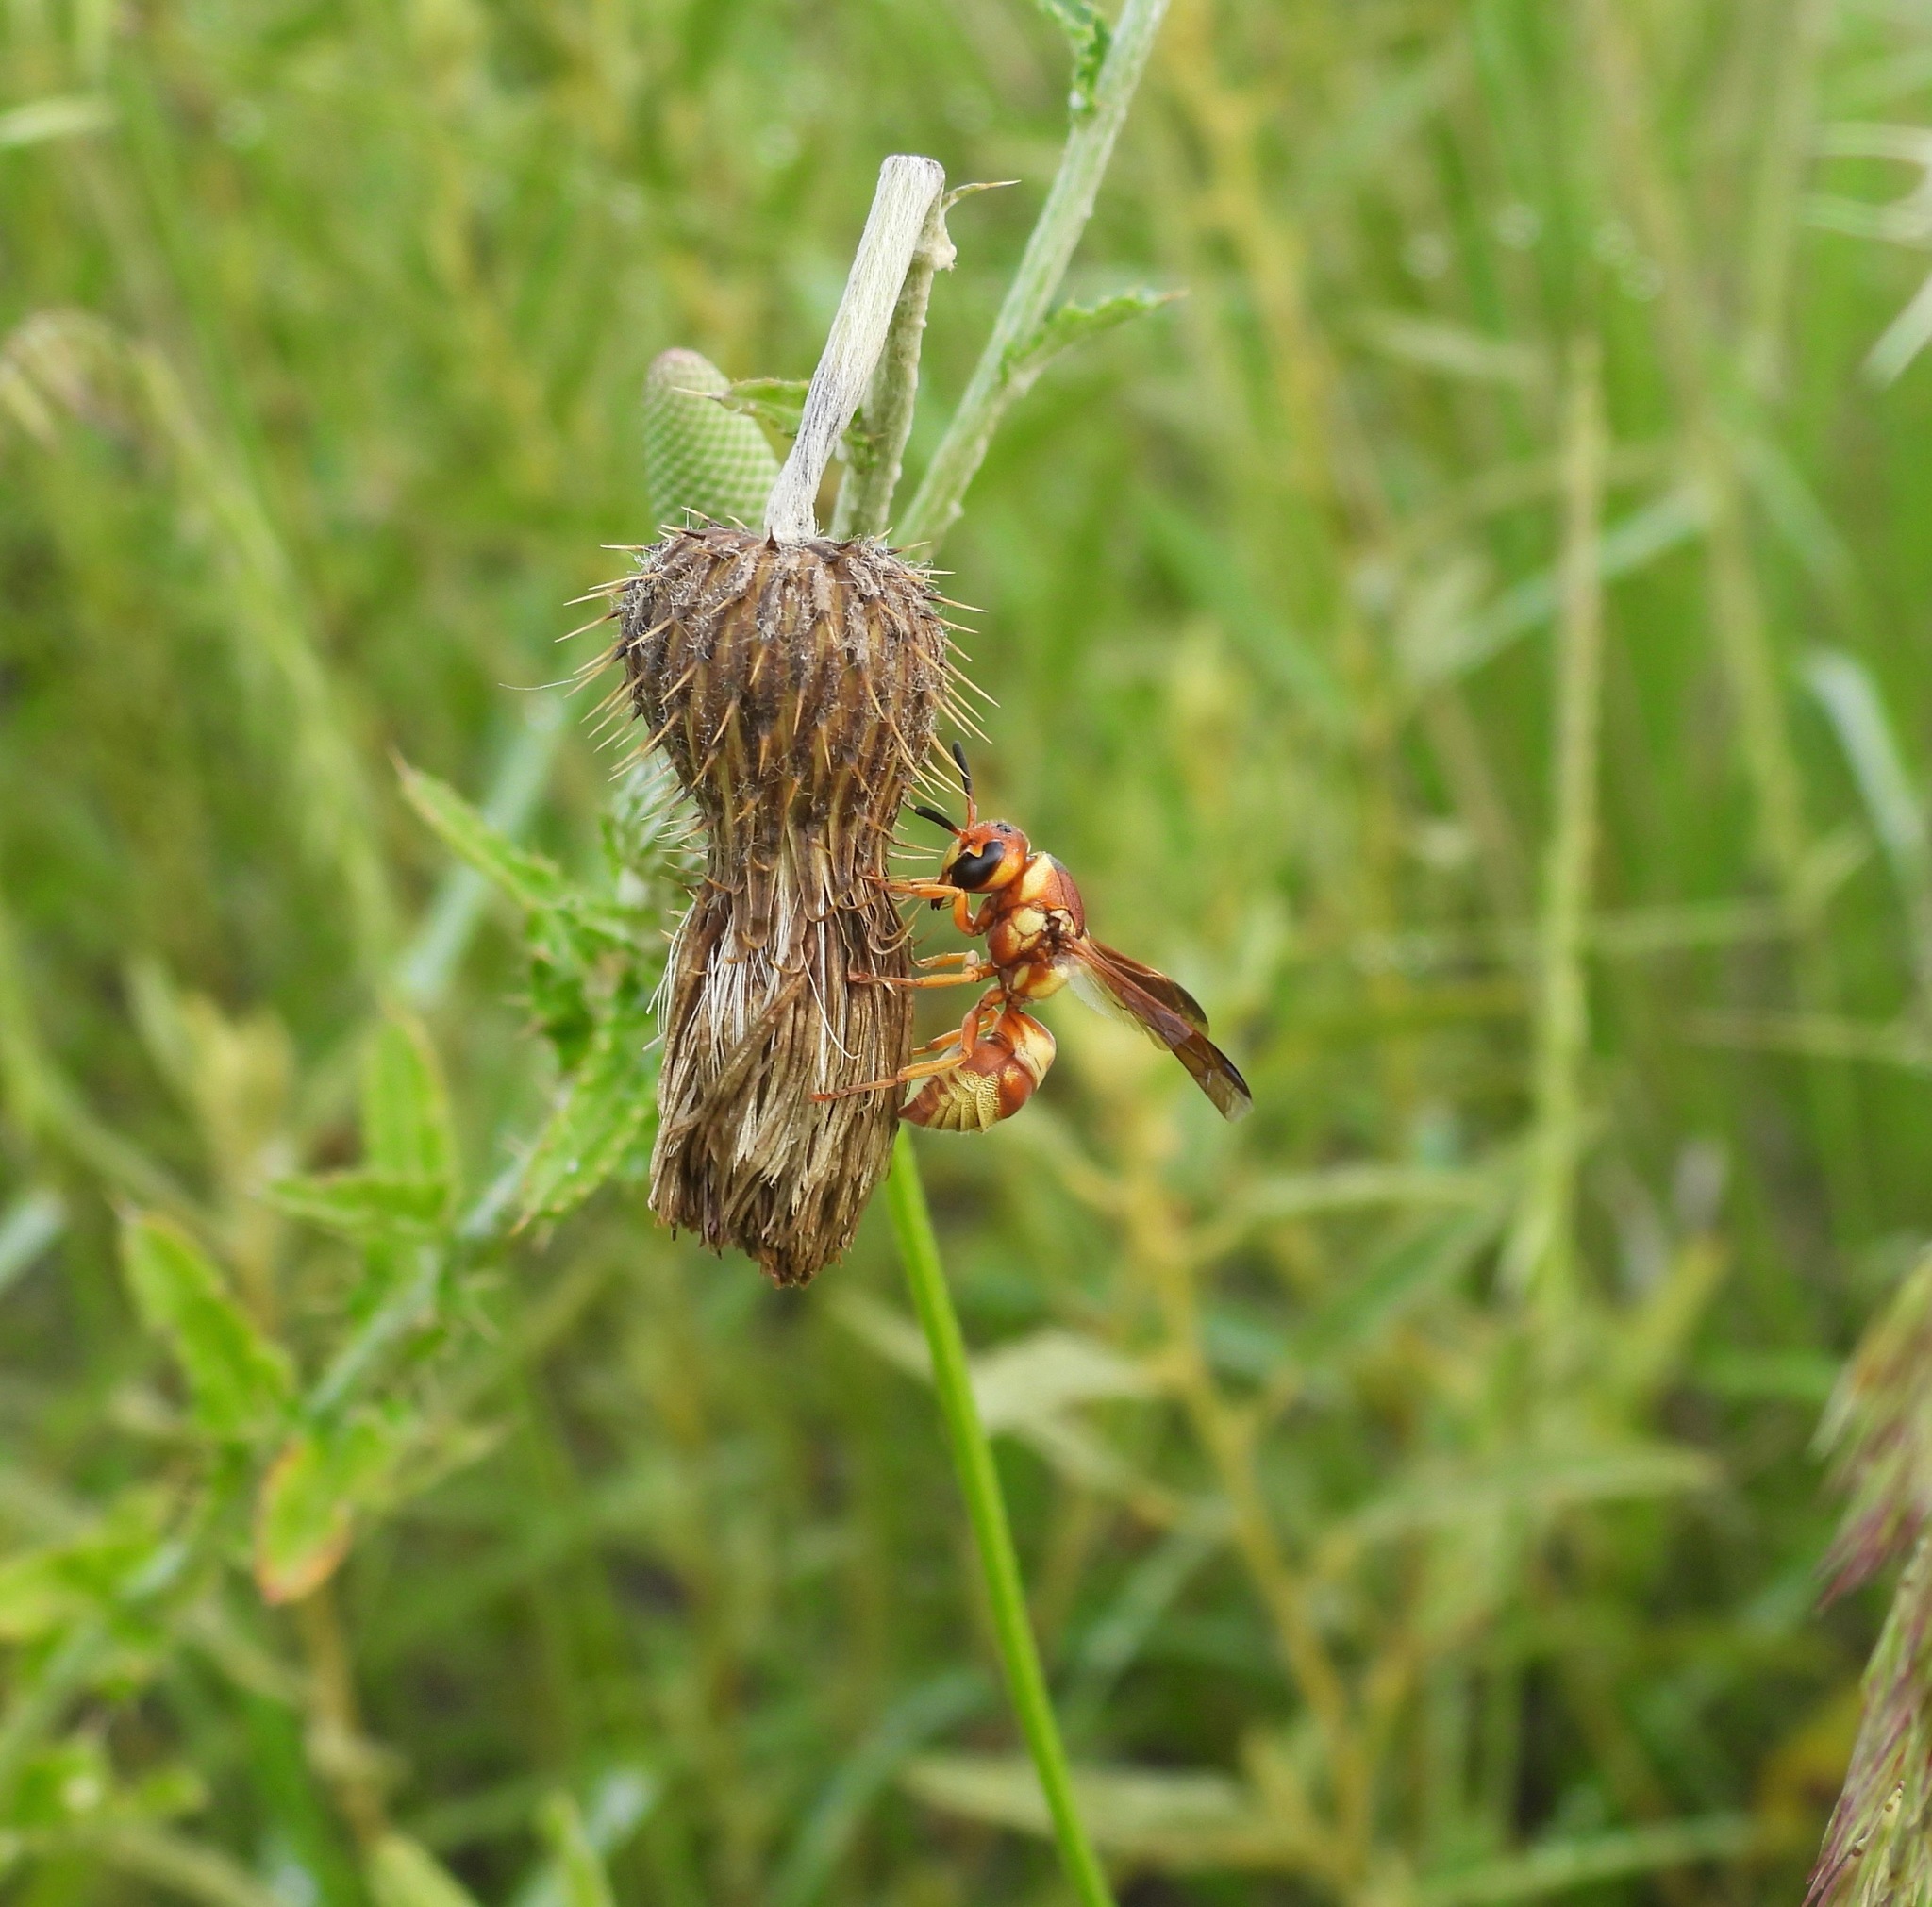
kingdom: Animalia
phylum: Arthropoda
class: Insecta
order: Hymenoptera
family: Eumenidae
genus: Euodynerus
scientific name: Euodynerus annulatus
